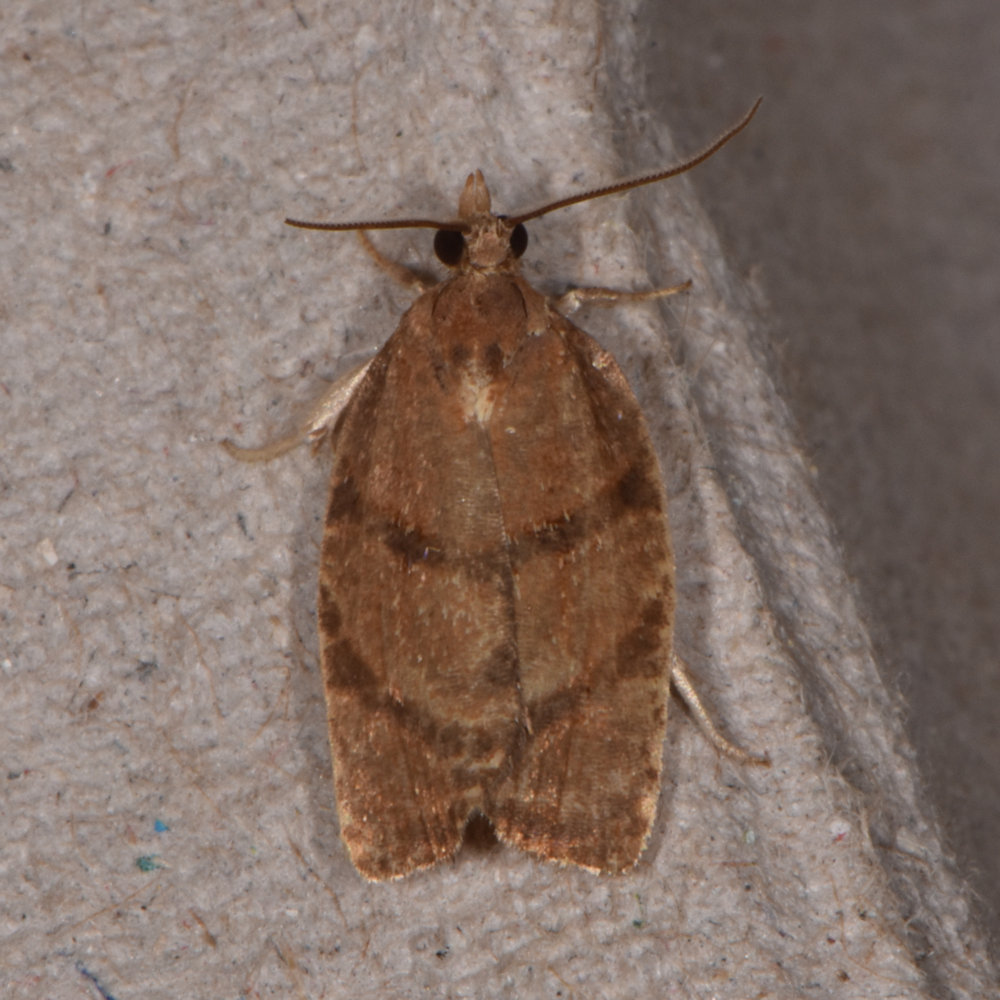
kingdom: Animalia
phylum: Arthropoda
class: Insecta
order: Lepidoptera
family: Tortricidae
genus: Argyrotaenia
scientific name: Argyrotaenia juglandana
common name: Hickory leafroller moth
